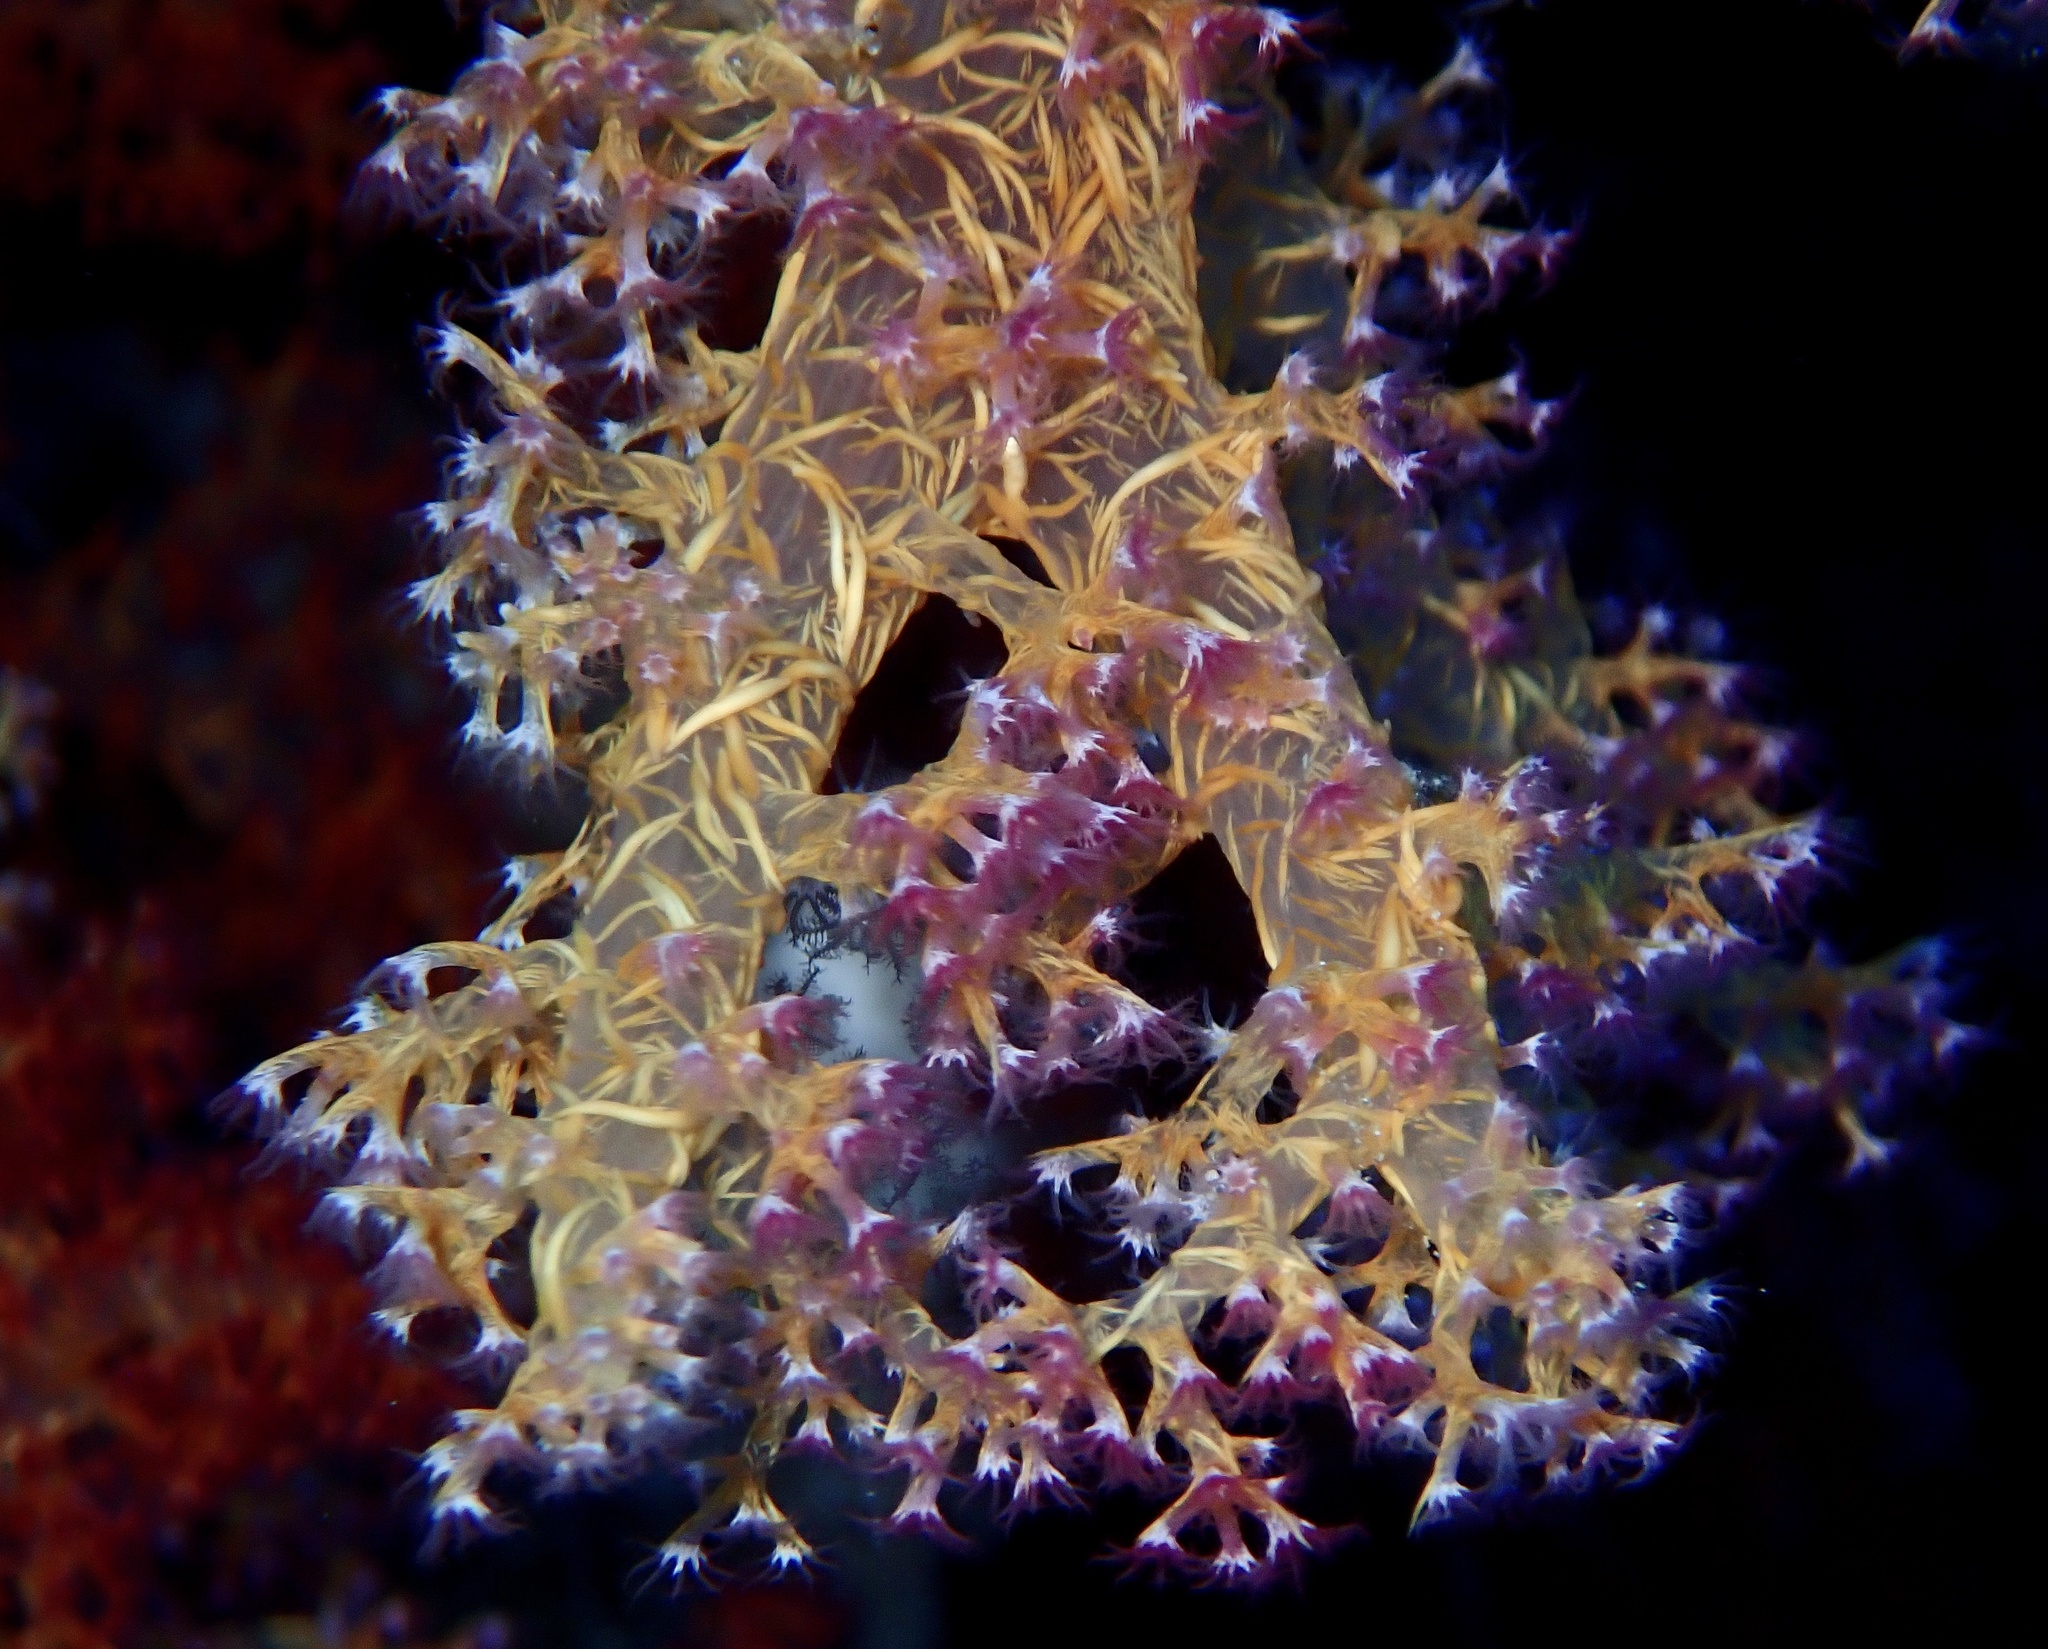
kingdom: Animalia
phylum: Cnidaria
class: Anthozoa
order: Malacalcyonacea
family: Nephtheidae
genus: Dendronephthya
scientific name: Dendronephthya hemprichi
